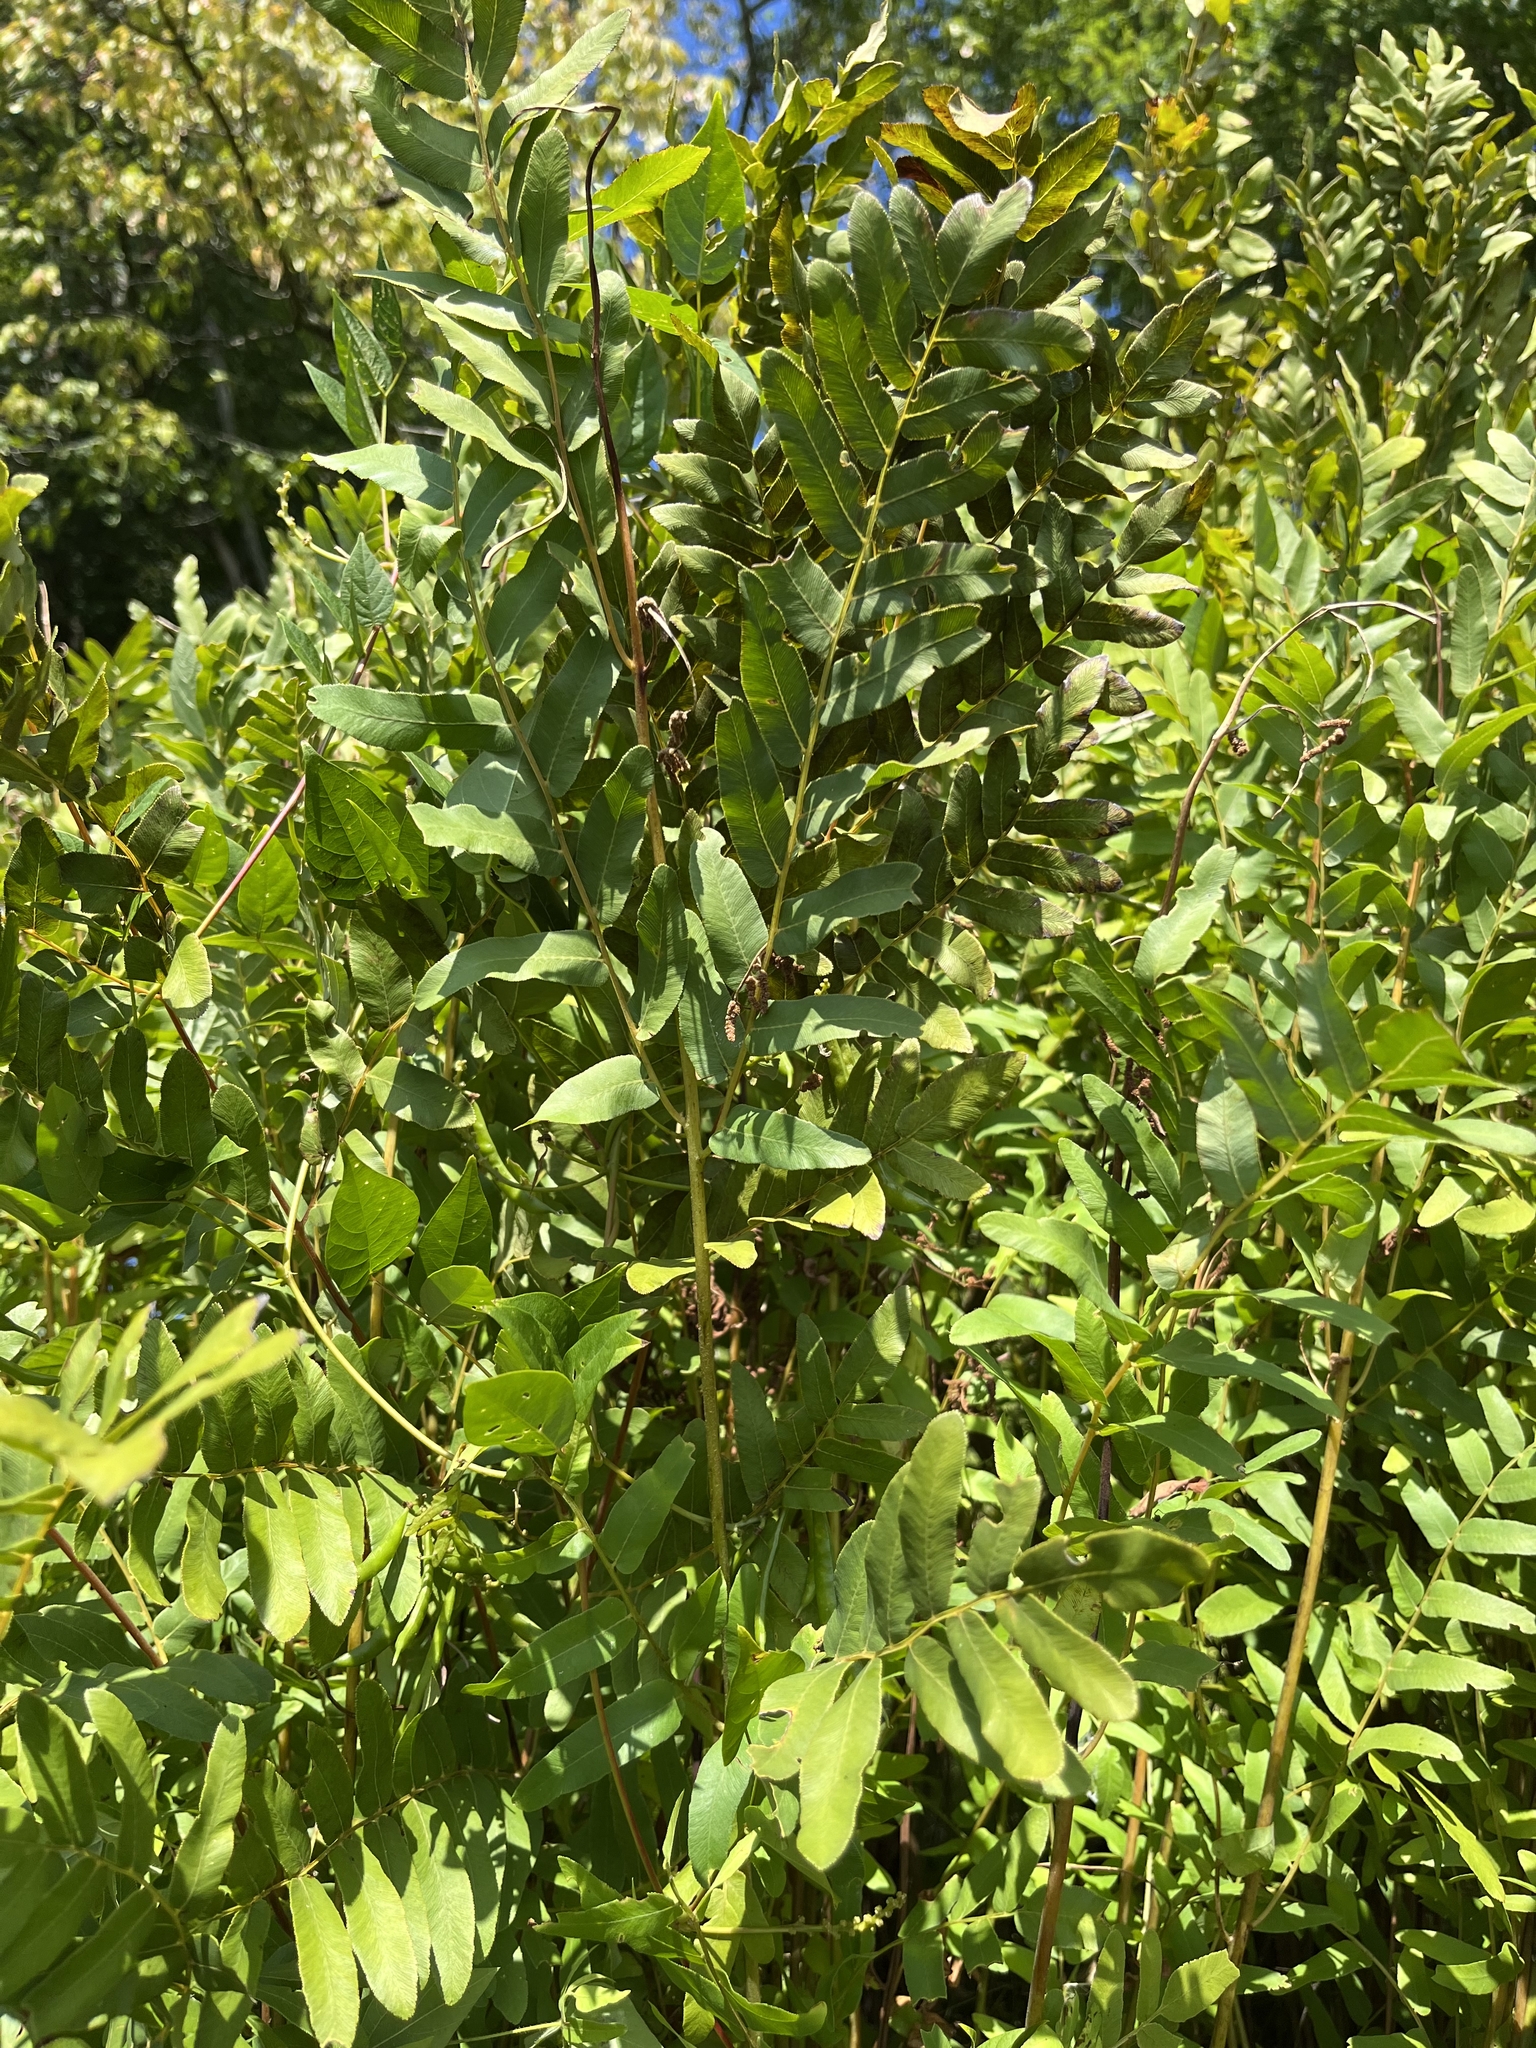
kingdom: Plantae
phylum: Tracheophyta
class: Polypodiopsida
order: Osmundales
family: Osmundaceae
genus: Osmunda
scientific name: Osmunda spectabilis
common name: American royal fern
